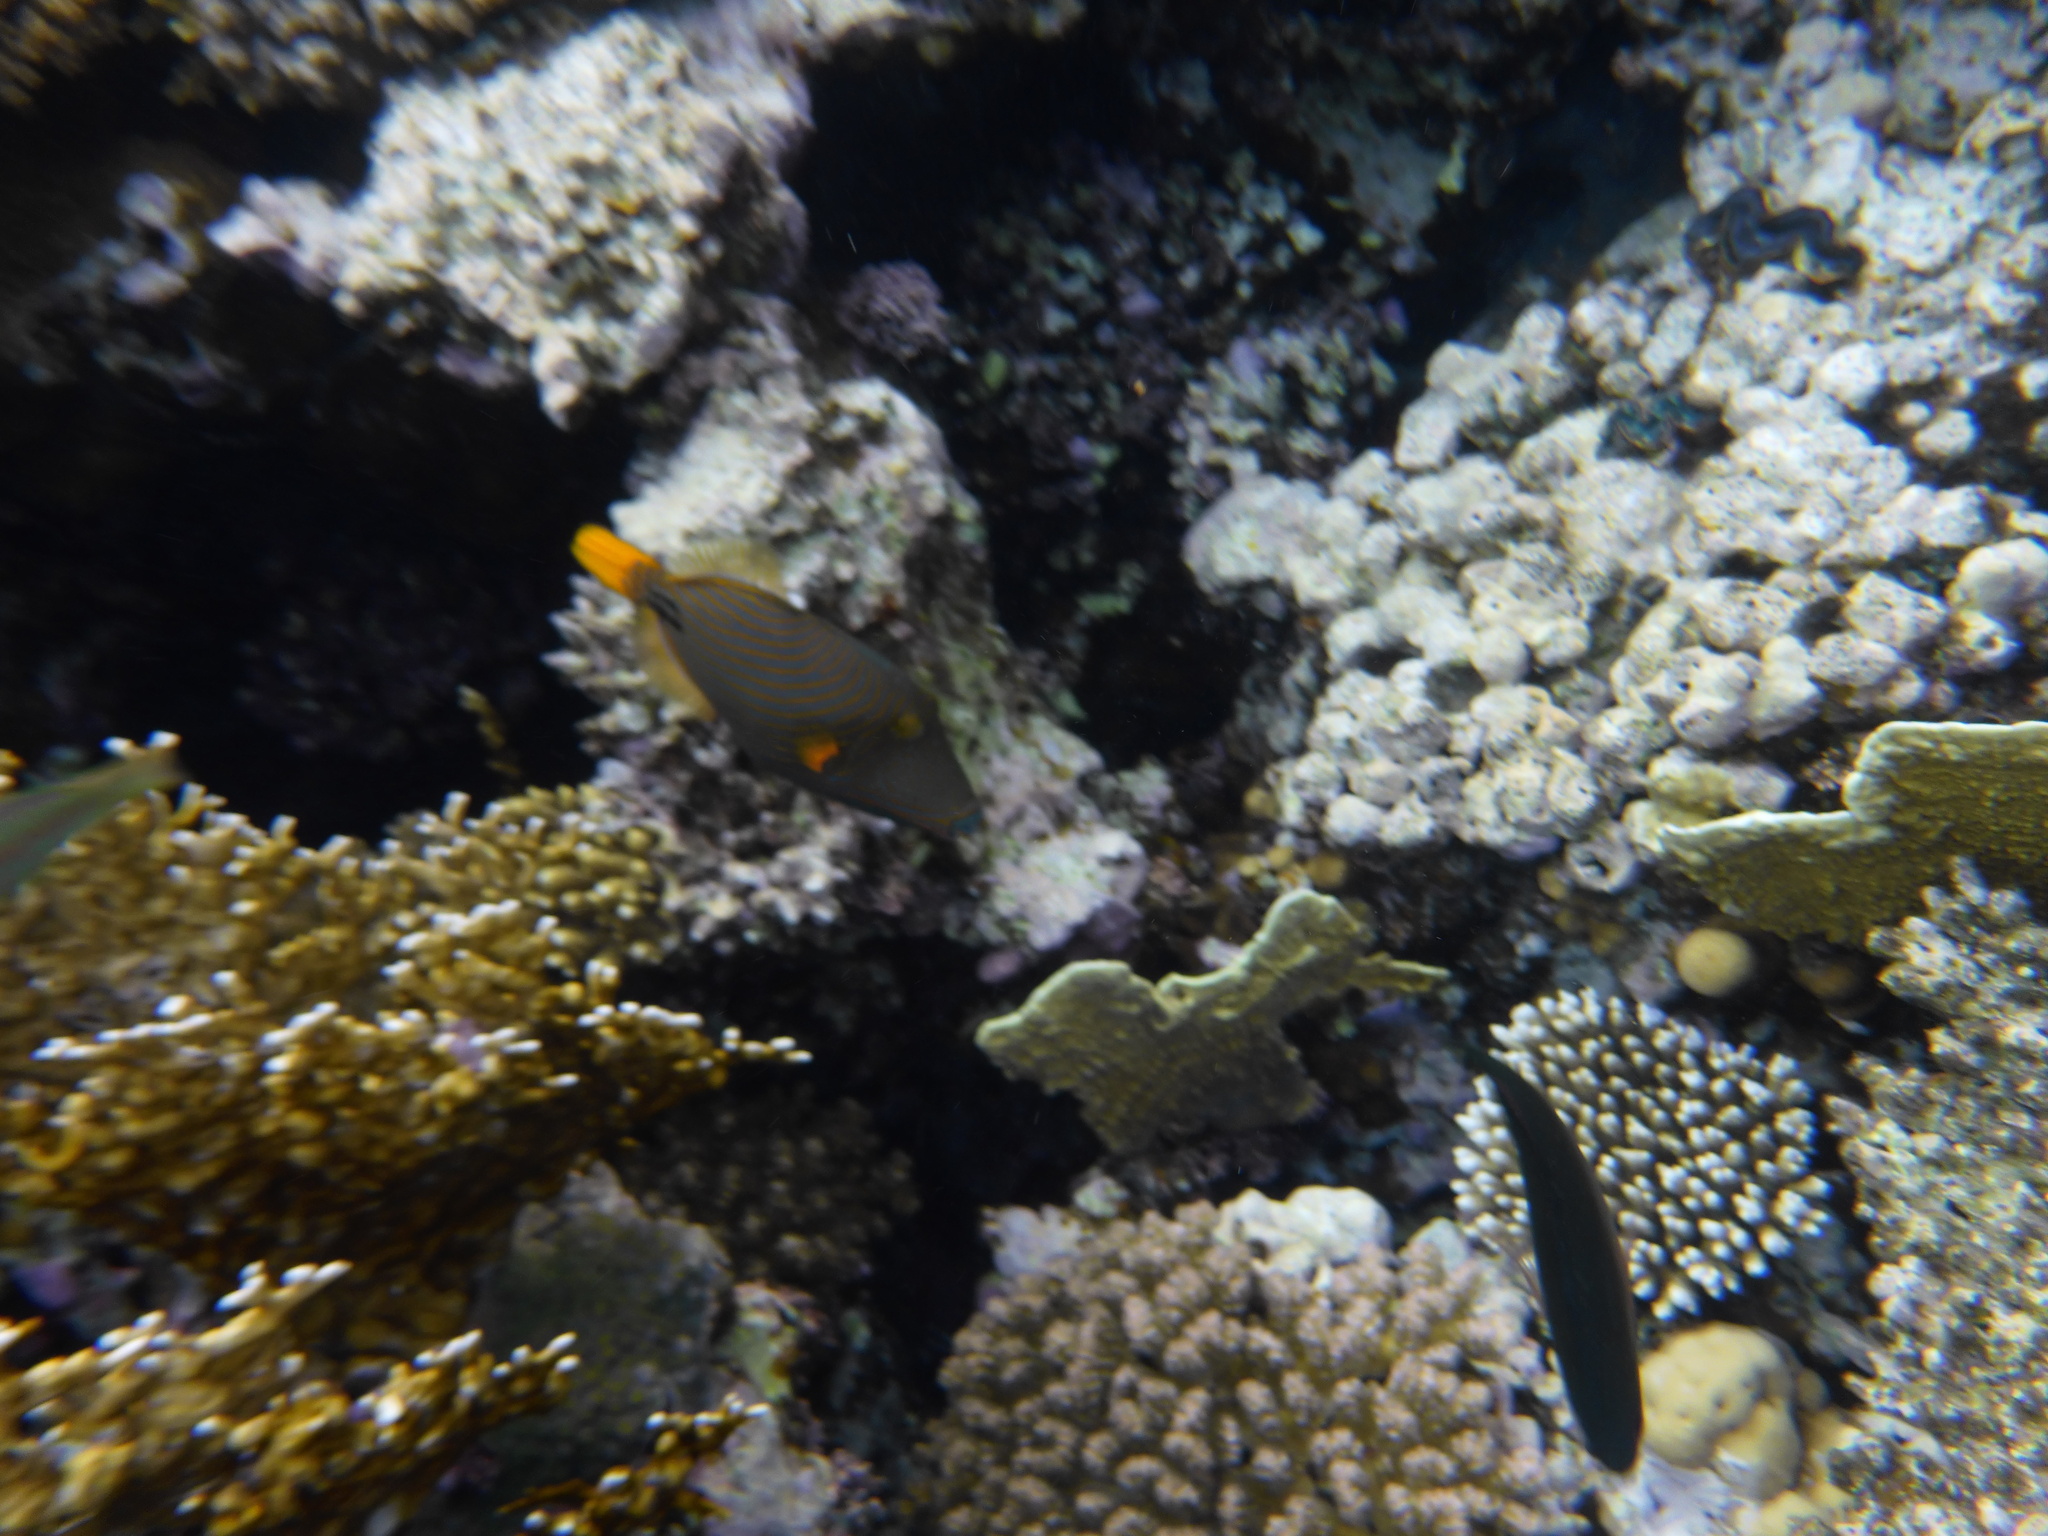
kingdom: Animalia
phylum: Chordata
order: Tetraodontiformes
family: Balistidae
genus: Balistapus
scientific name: Balistapus undulatus
